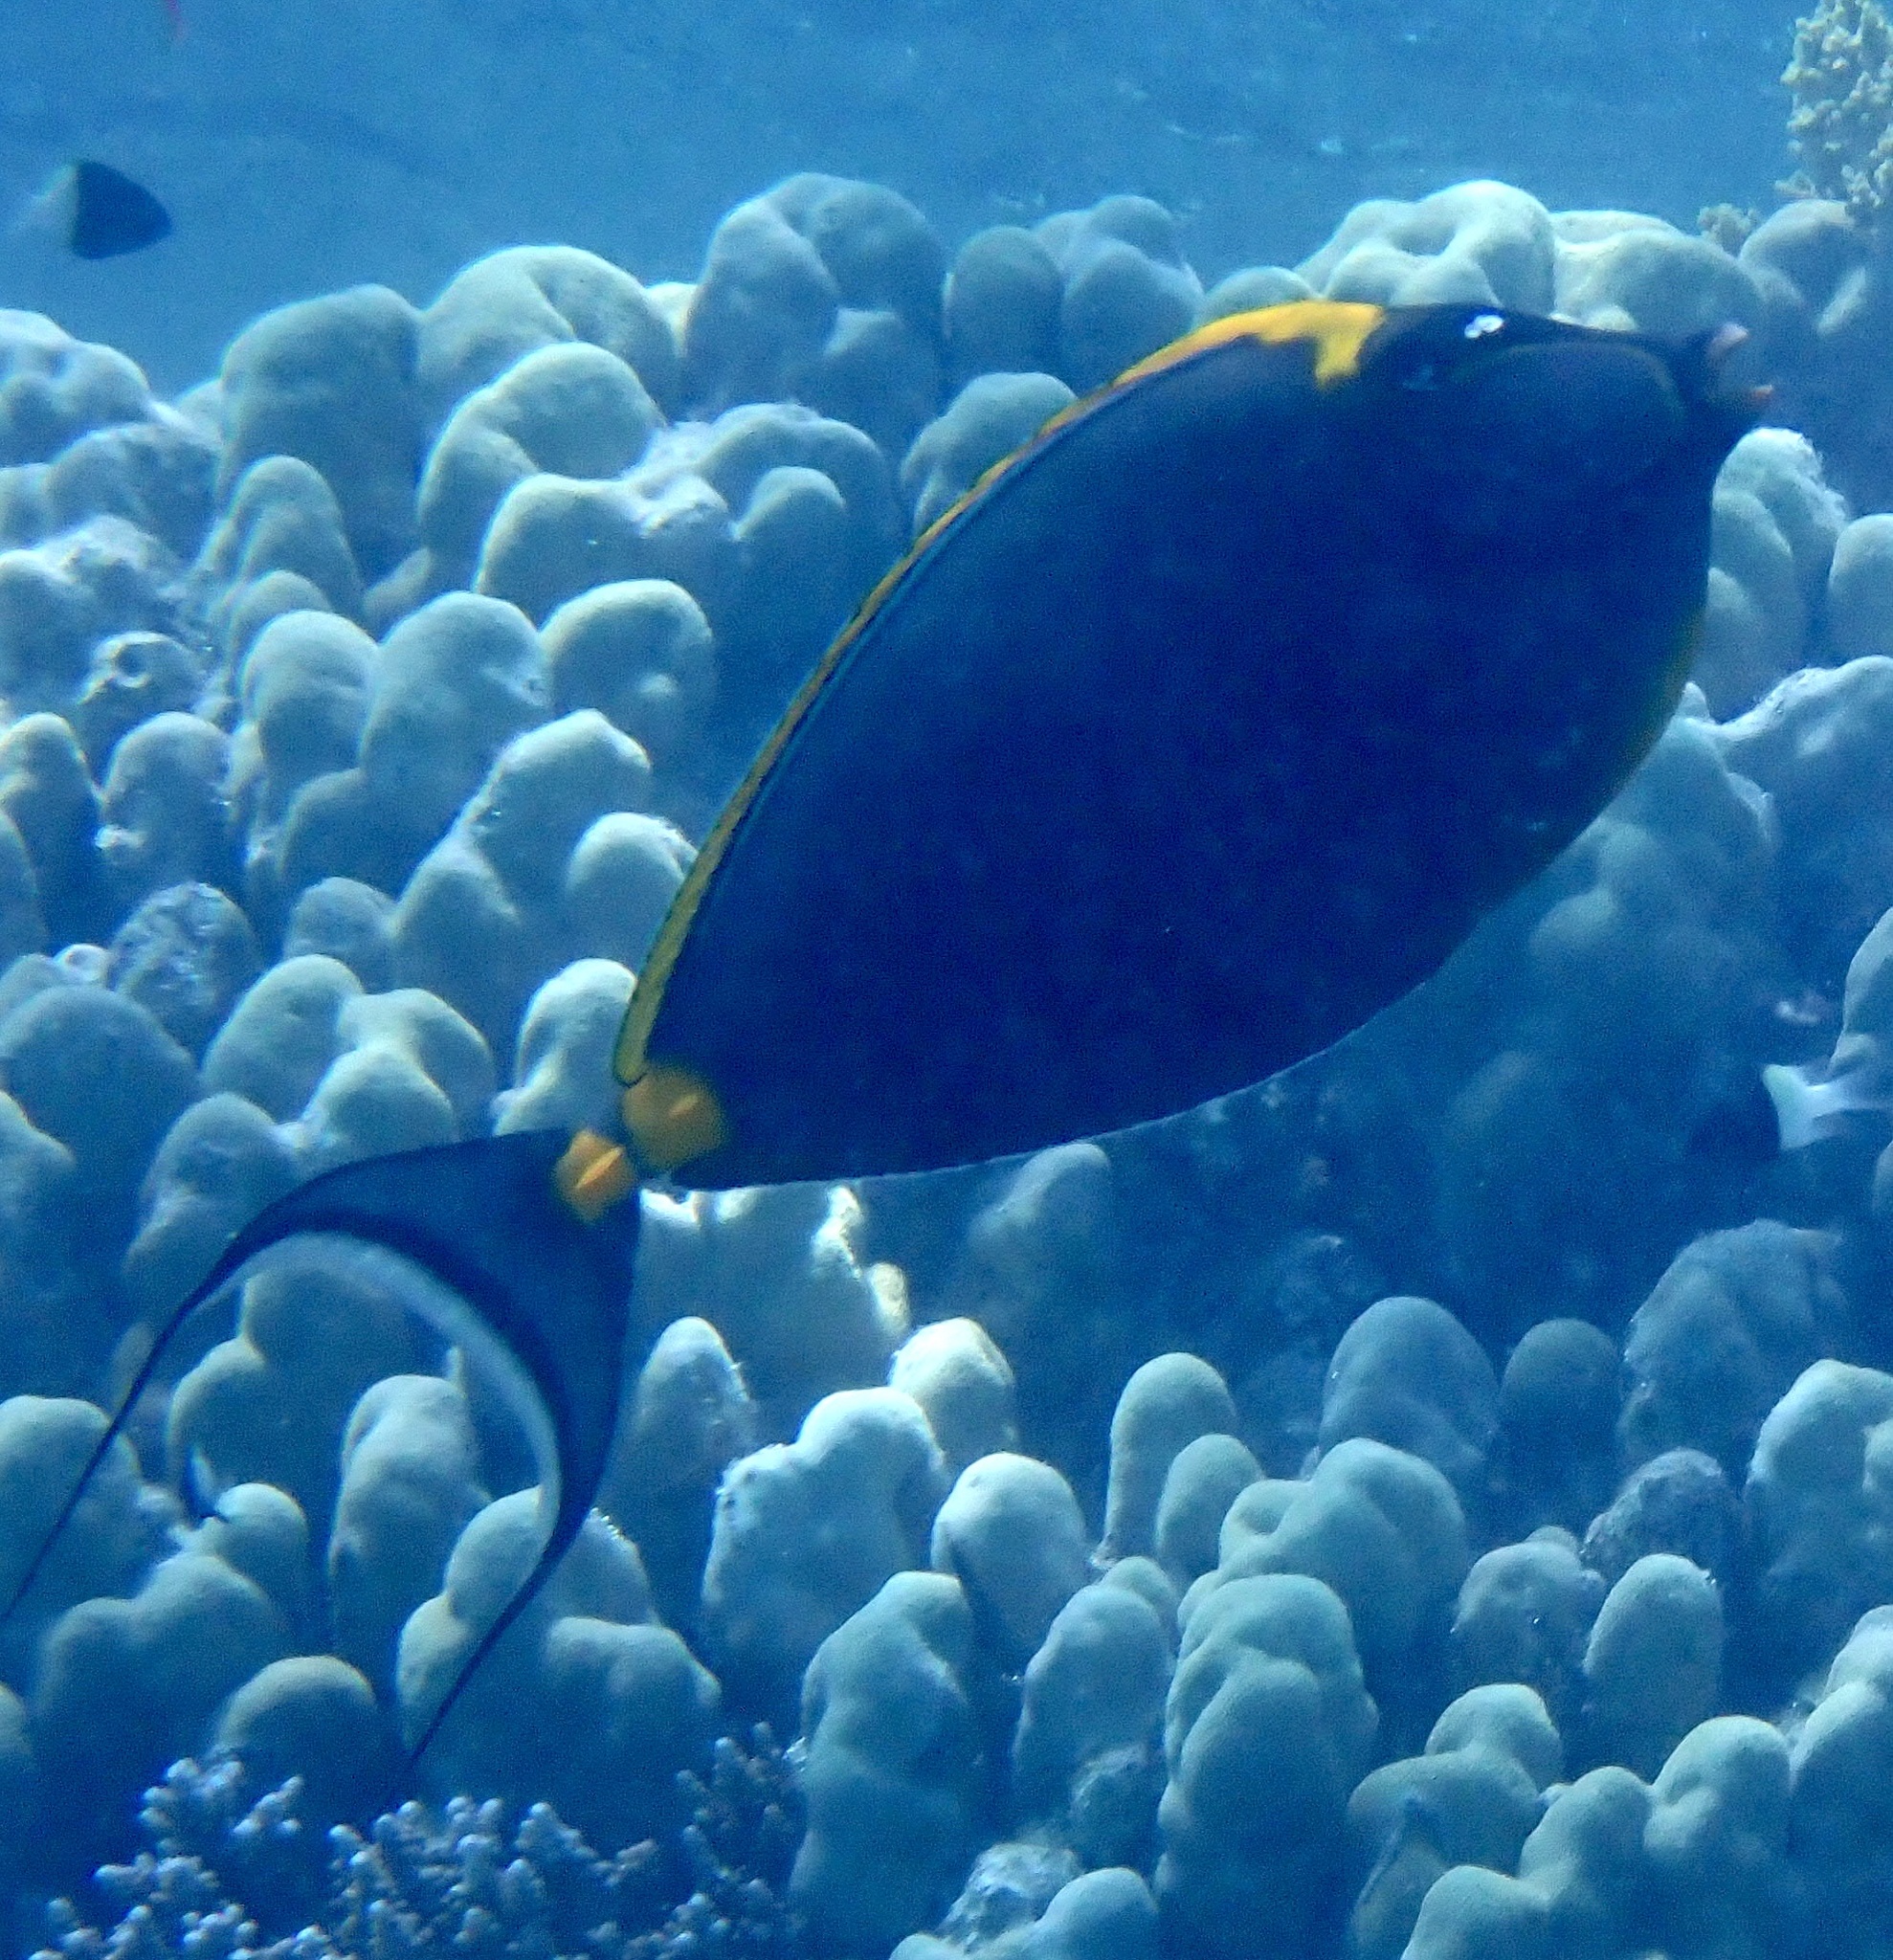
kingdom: Animalia
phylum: Chordata
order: Perciformes
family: Acanthuridae
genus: Naso
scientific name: Naso elegans
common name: Orangespine unicornfish
